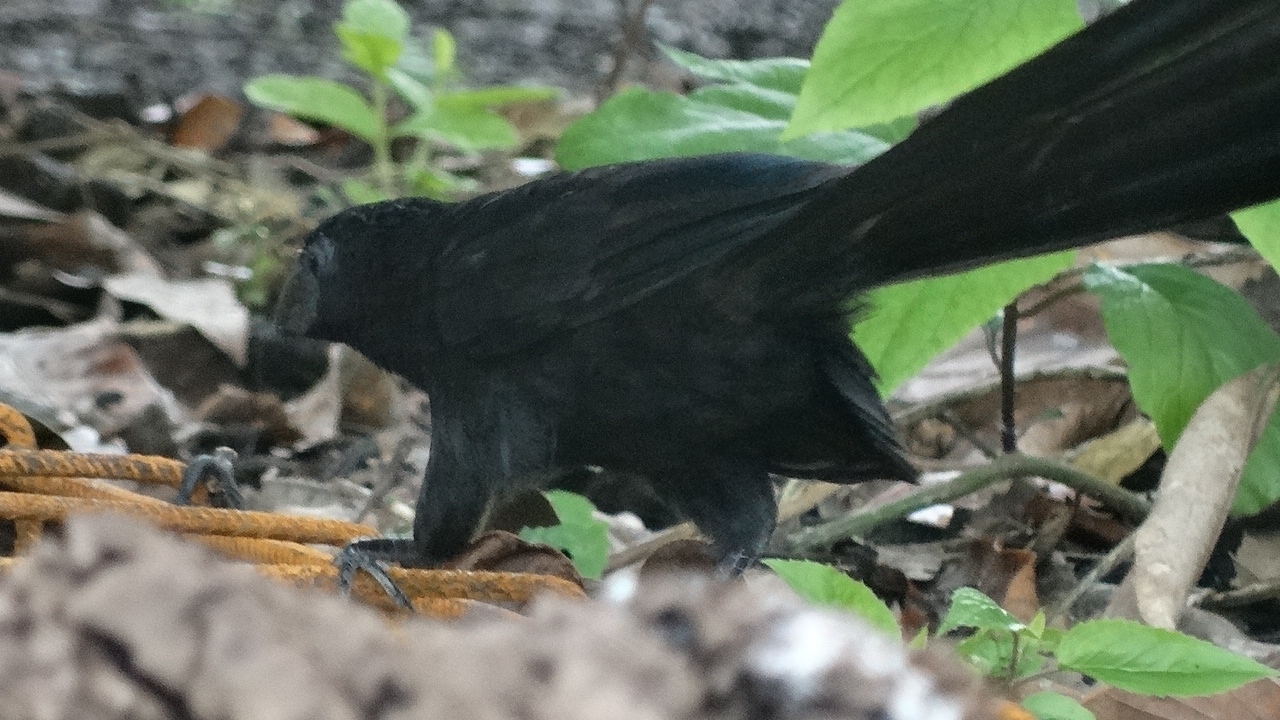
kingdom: Animalia
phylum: Chordata
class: Aves
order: Cuculiformes
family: Cuculidae
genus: Crotophaga
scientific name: Crotophaga sulcirostris
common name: Groove-billed ani
